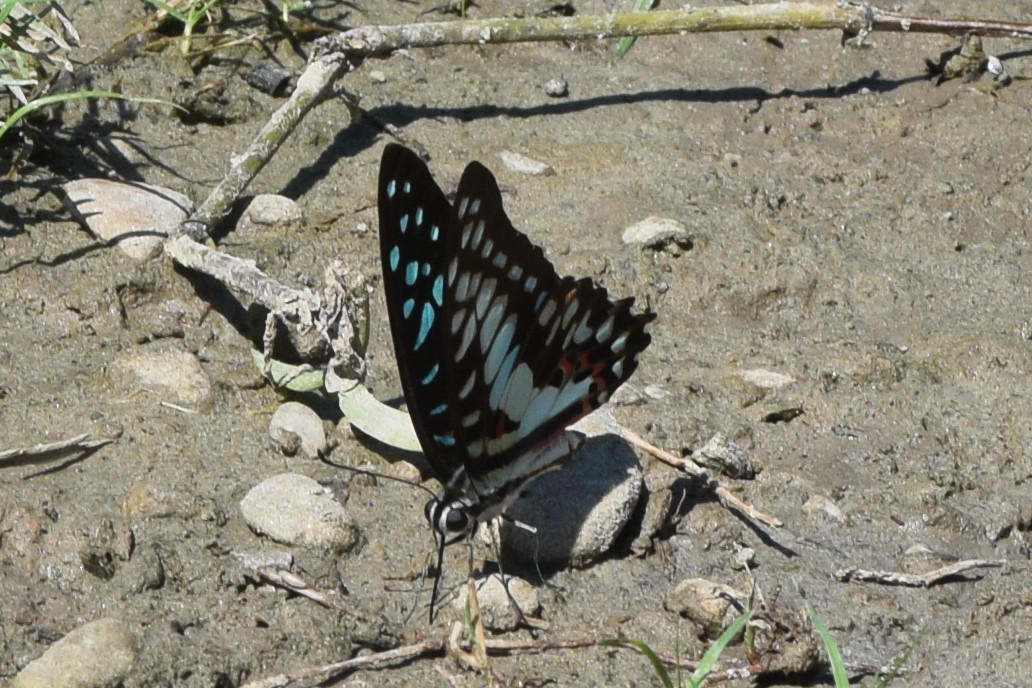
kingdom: Animalia
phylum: Arthropoda
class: Insecta
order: Lepidoptera
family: Papilionidae
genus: Graphium
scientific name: Graphium doson
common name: Common jay
